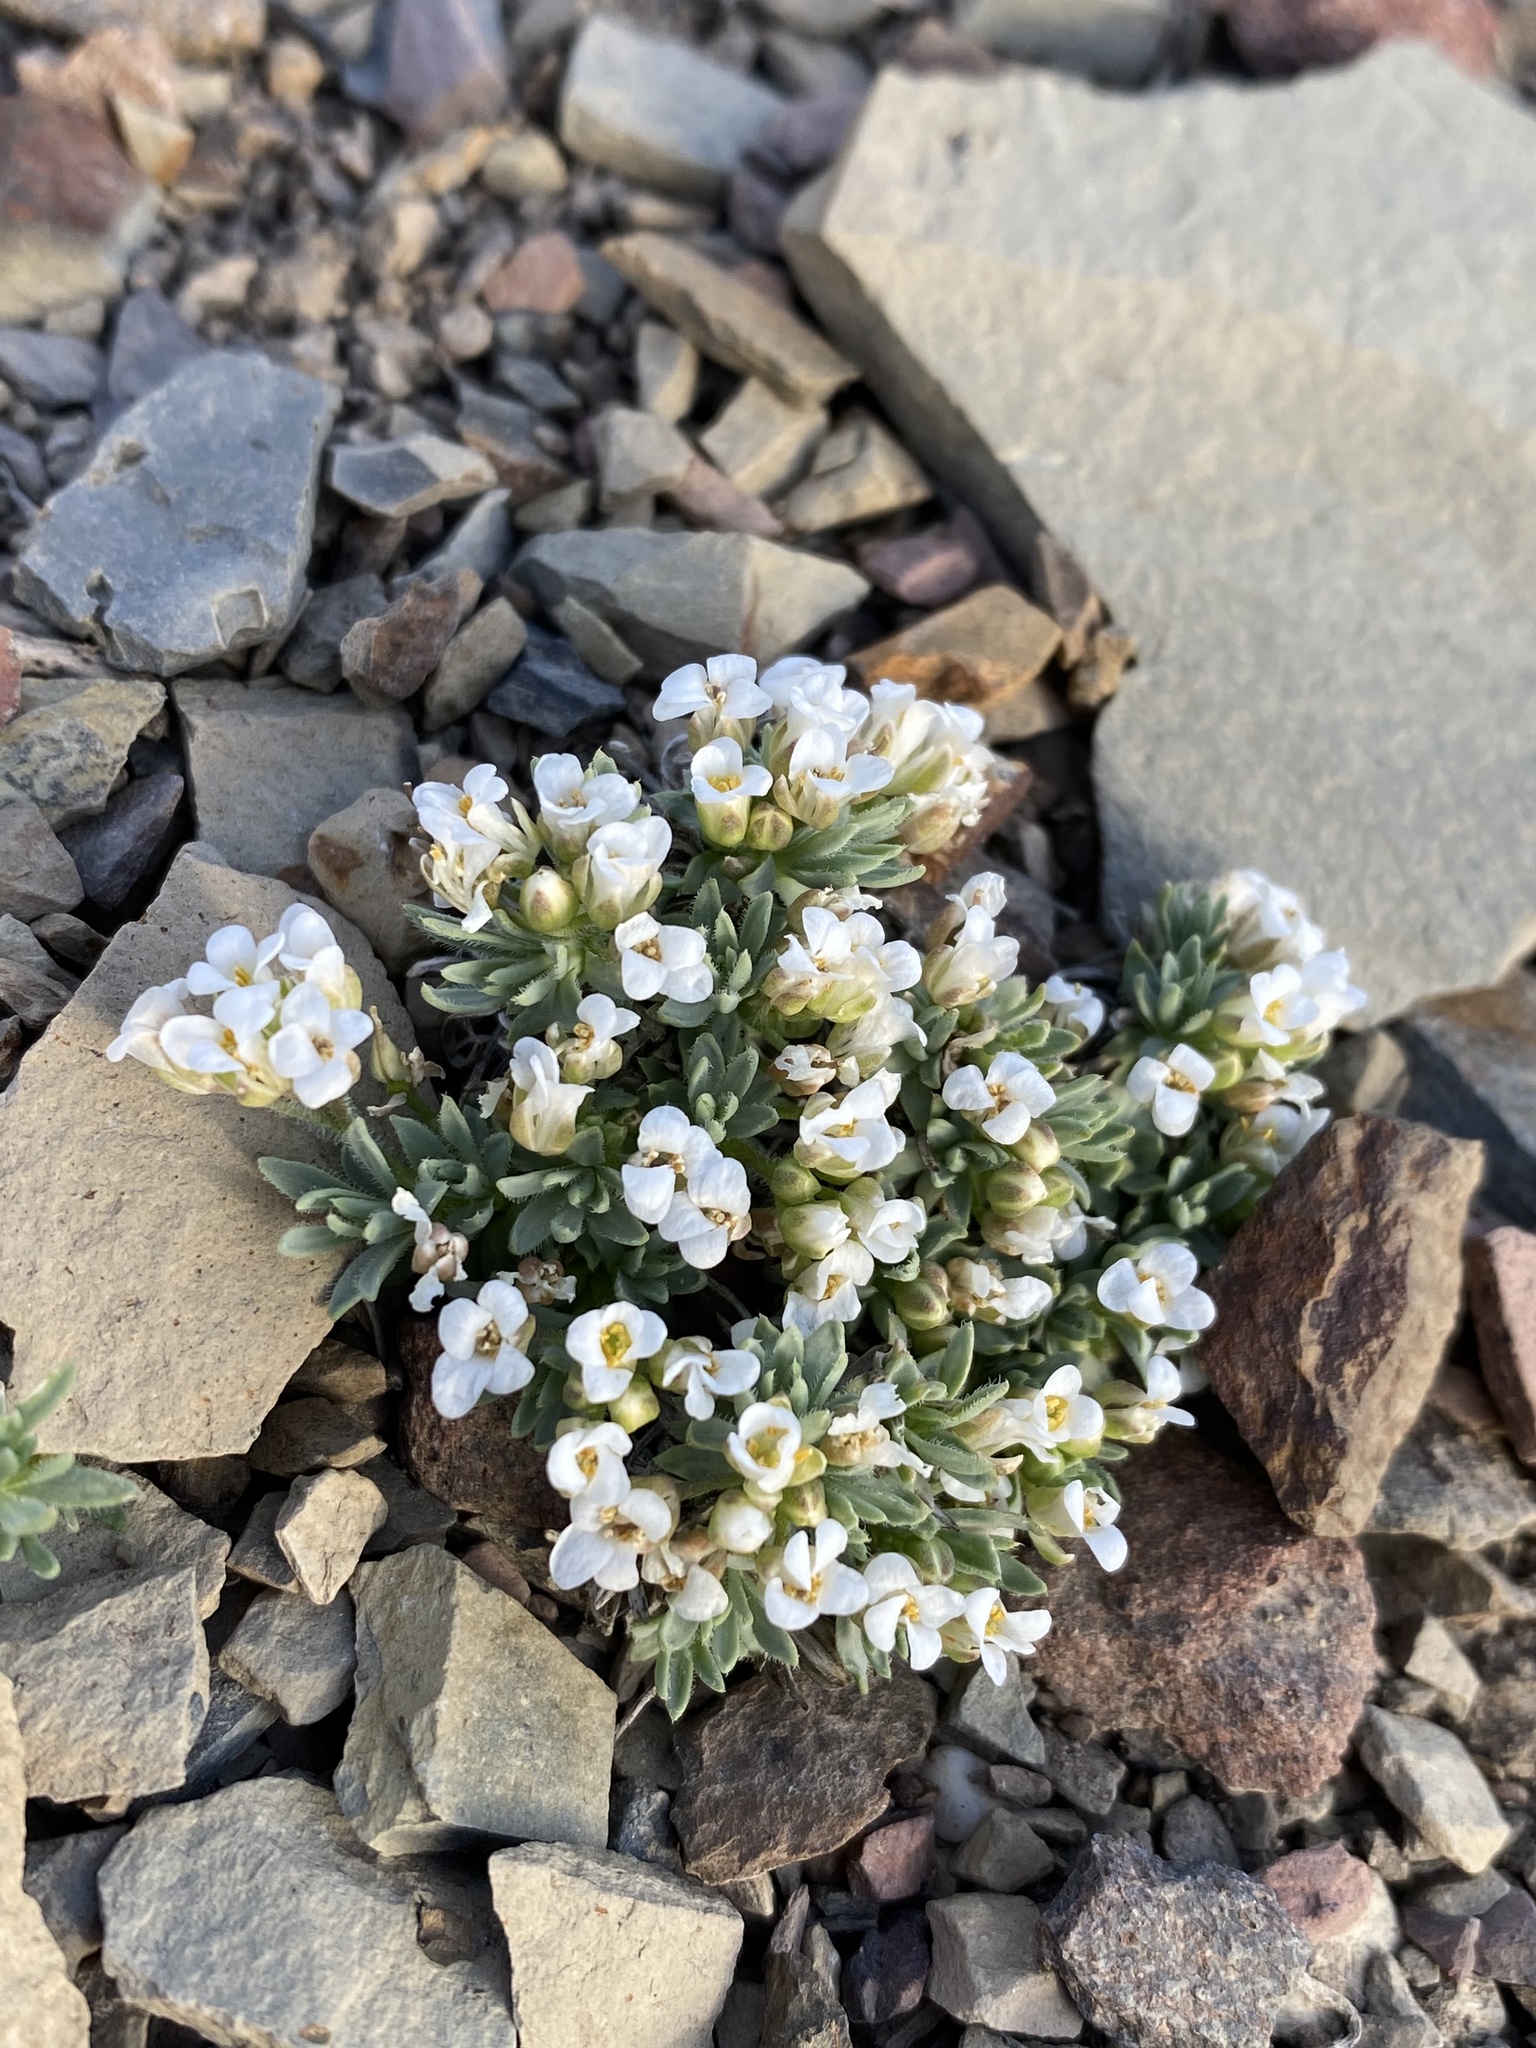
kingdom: Plantae
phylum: Tracheophyta
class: Magnoliopsida
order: Brassicales
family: Brassicaceae
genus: Cusickiella
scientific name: Cusickiella douglasii
